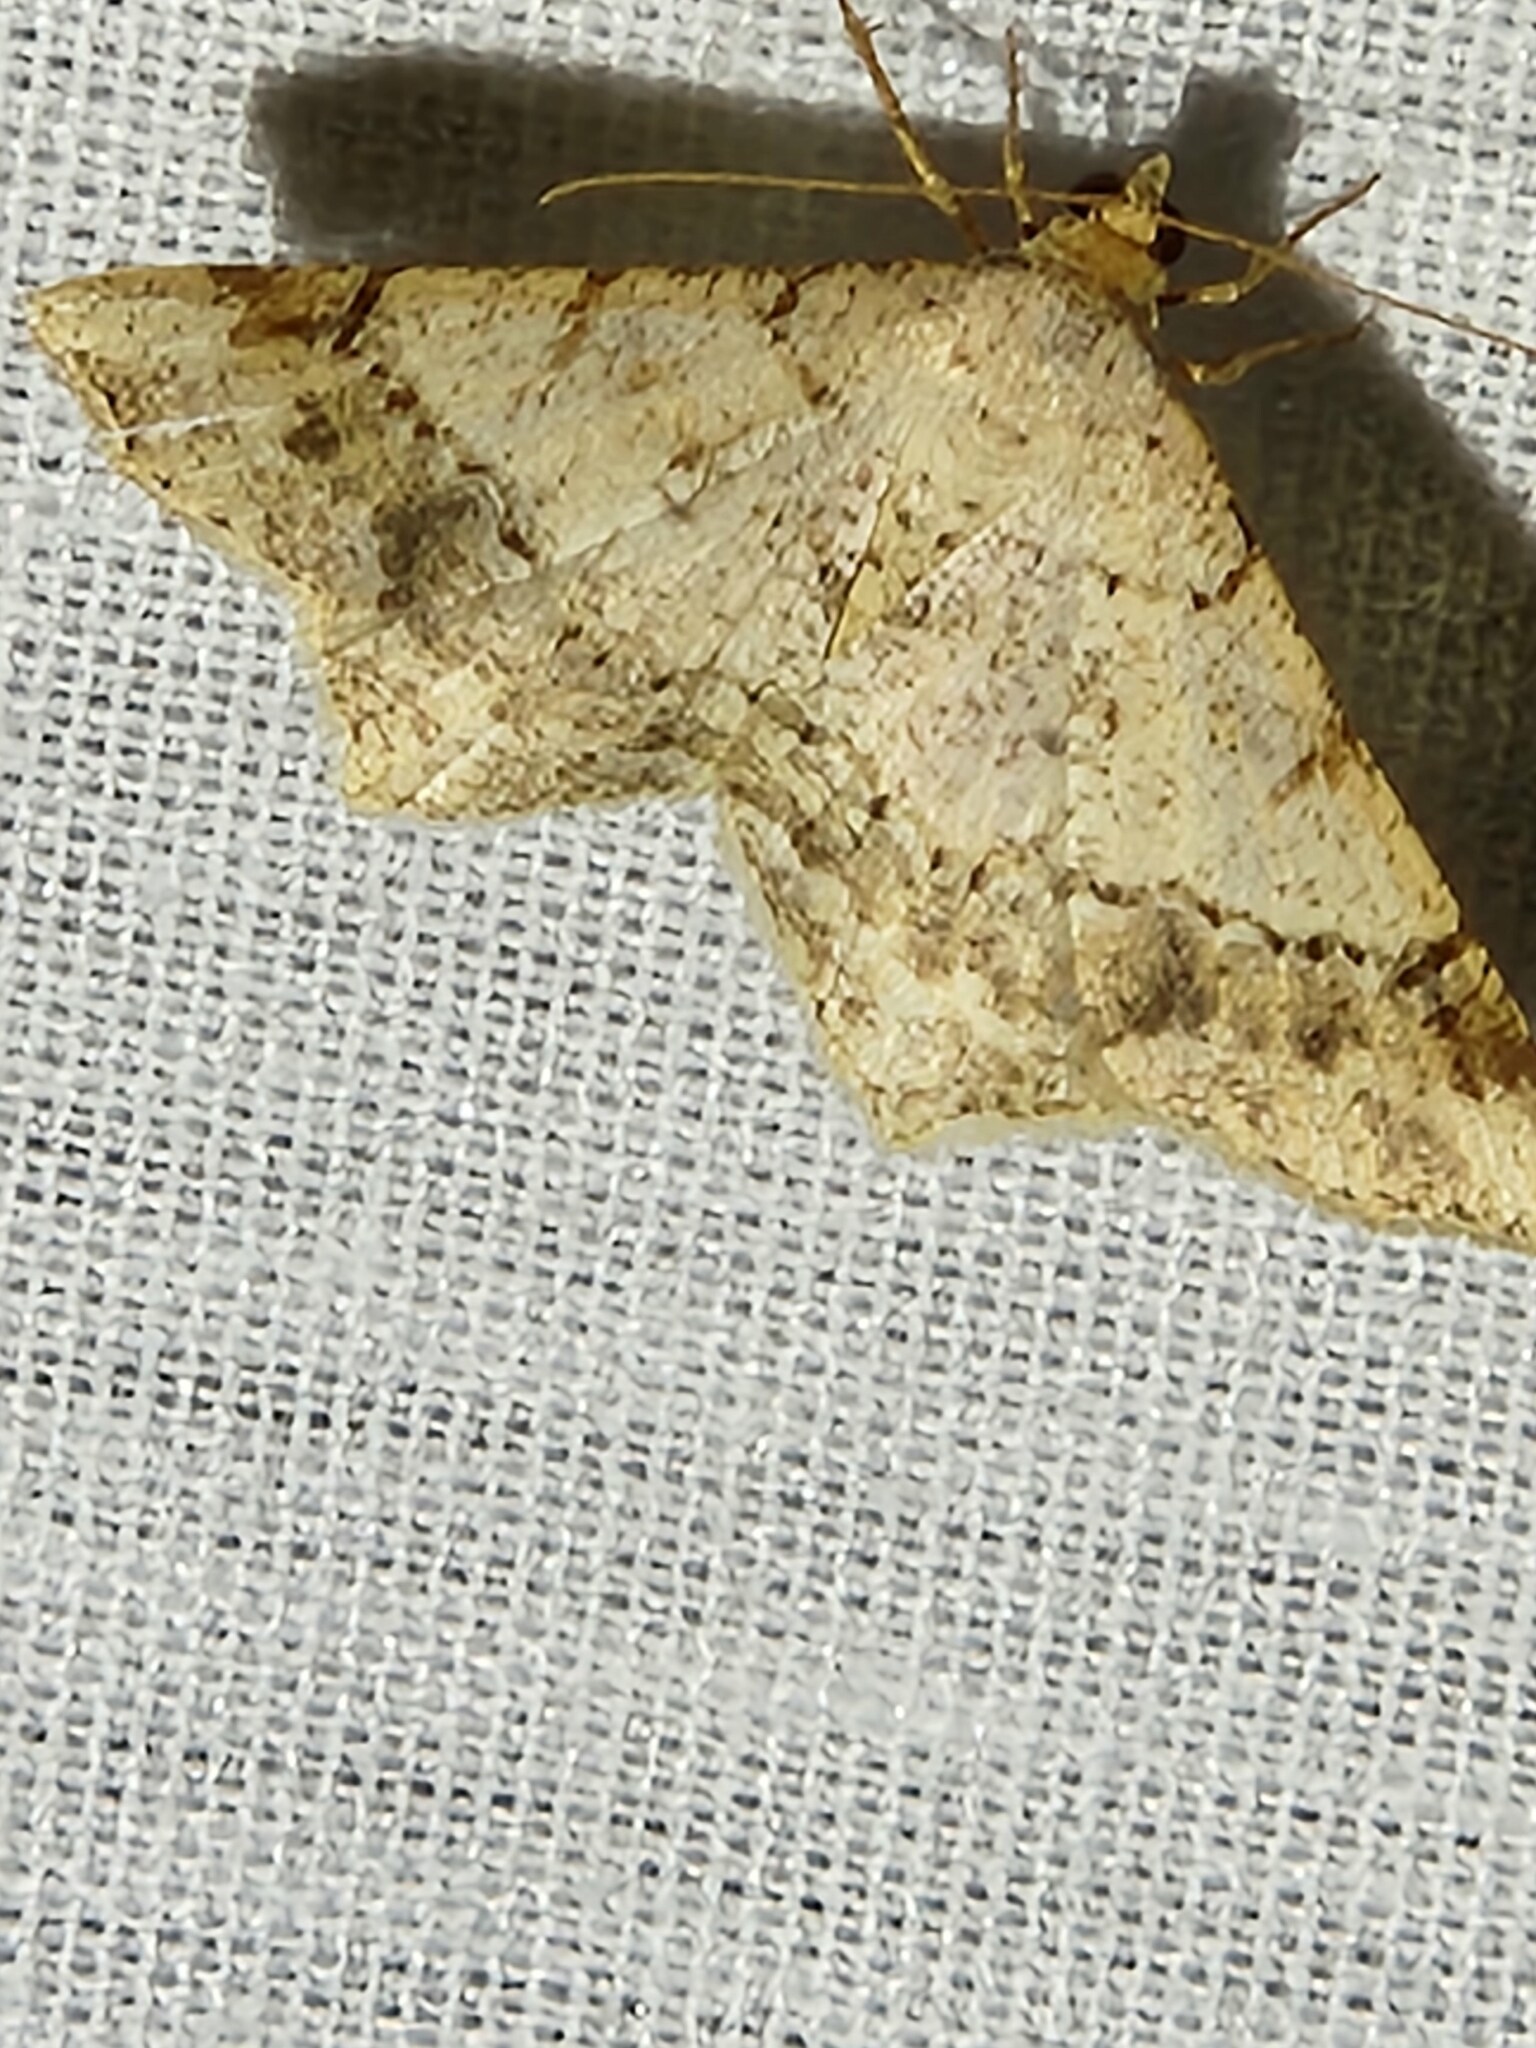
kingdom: Animalia
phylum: Arthropoda
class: Insecta
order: Lepidoptera
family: Geometridae
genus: Macaria
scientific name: Macaria abydata
